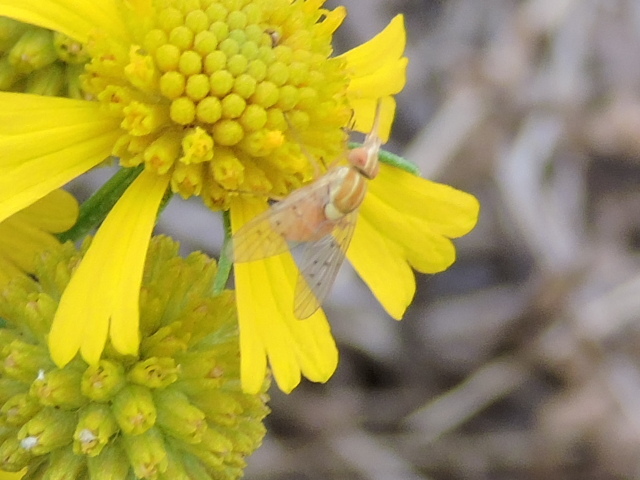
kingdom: Animalia
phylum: Arthropoda
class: Insecta
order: Diptera
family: Bombyliidae
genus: Poecilognathus
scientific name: Poecilognathus unimaculatus
